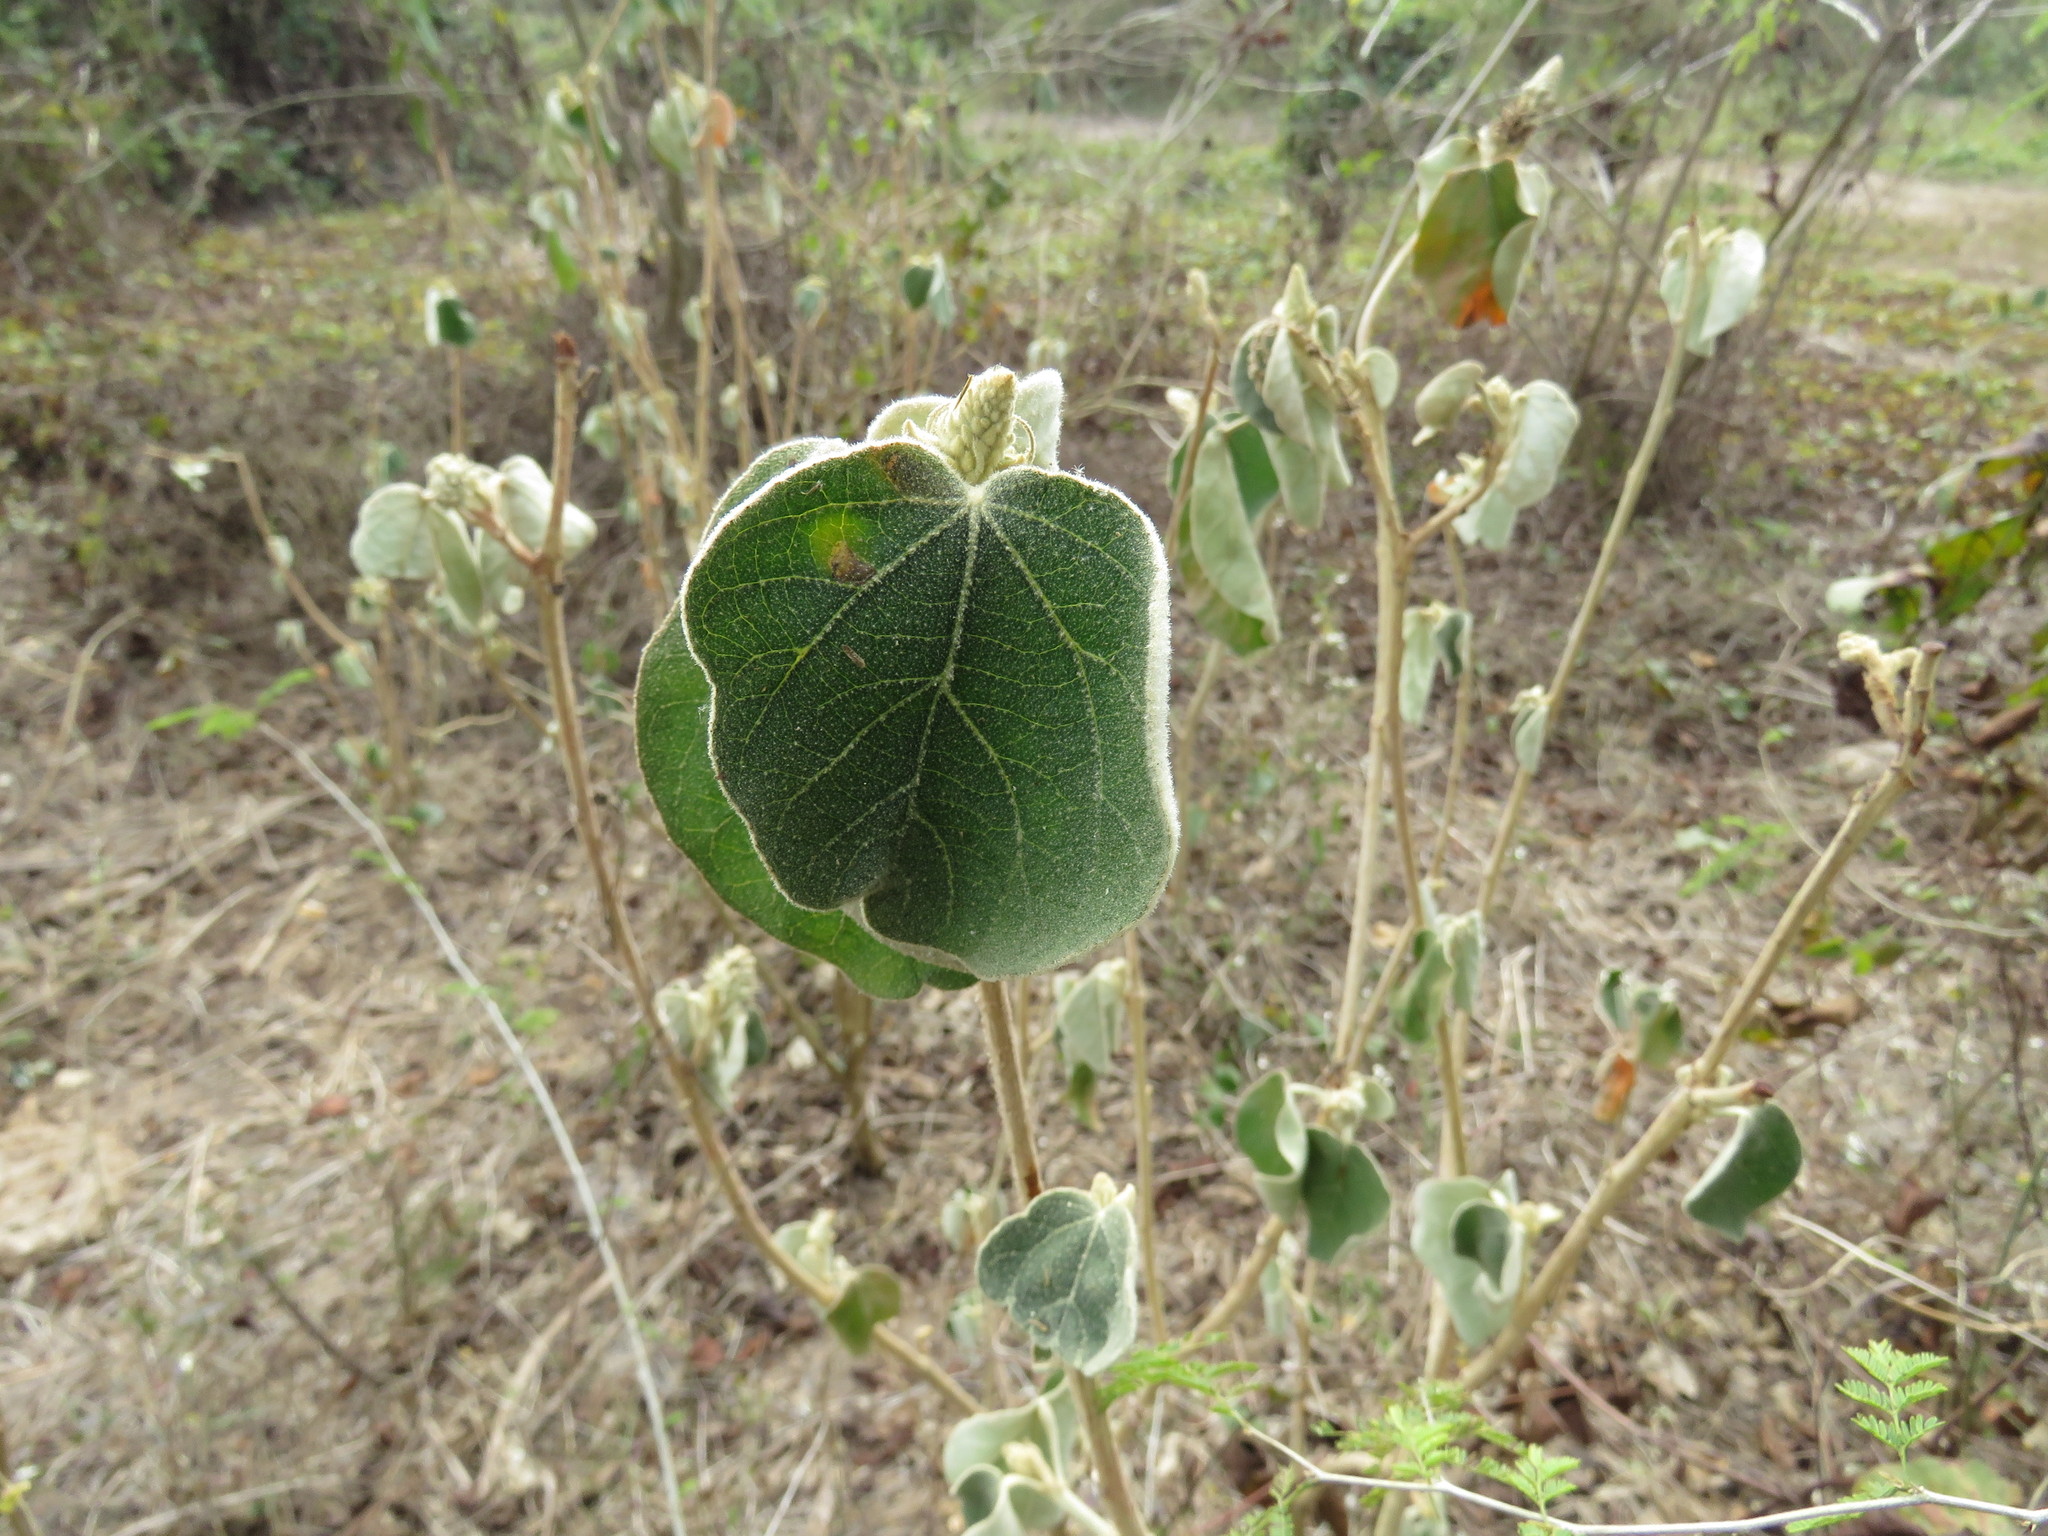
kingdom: Plantae
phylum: Tracheophyta
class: Magnoliopsida
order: Malpighiales
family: Euphorbiaceae
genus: Croton
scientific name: Croton suberosus
